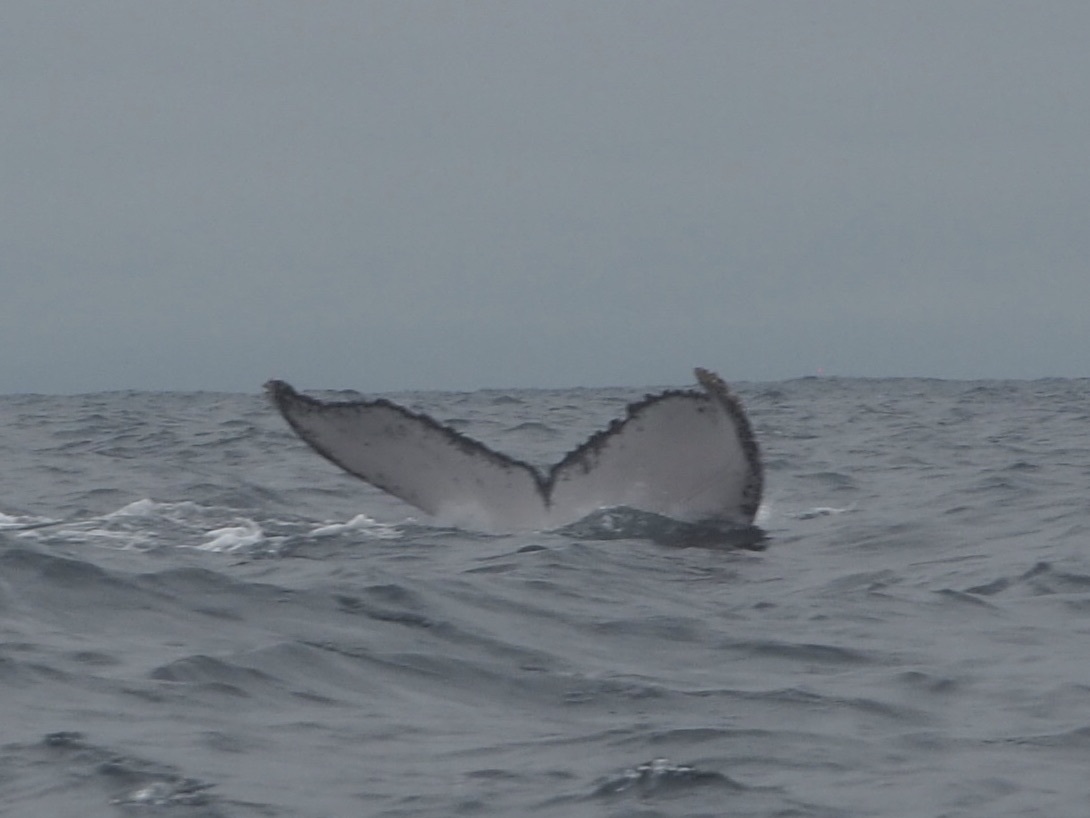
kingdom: Animalia
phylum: Chordata
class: Mammalia
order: Cetacea
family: Balaenopteridae
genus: Megaptera
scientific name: Megaptera novaeangliae
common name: Humpback whale
